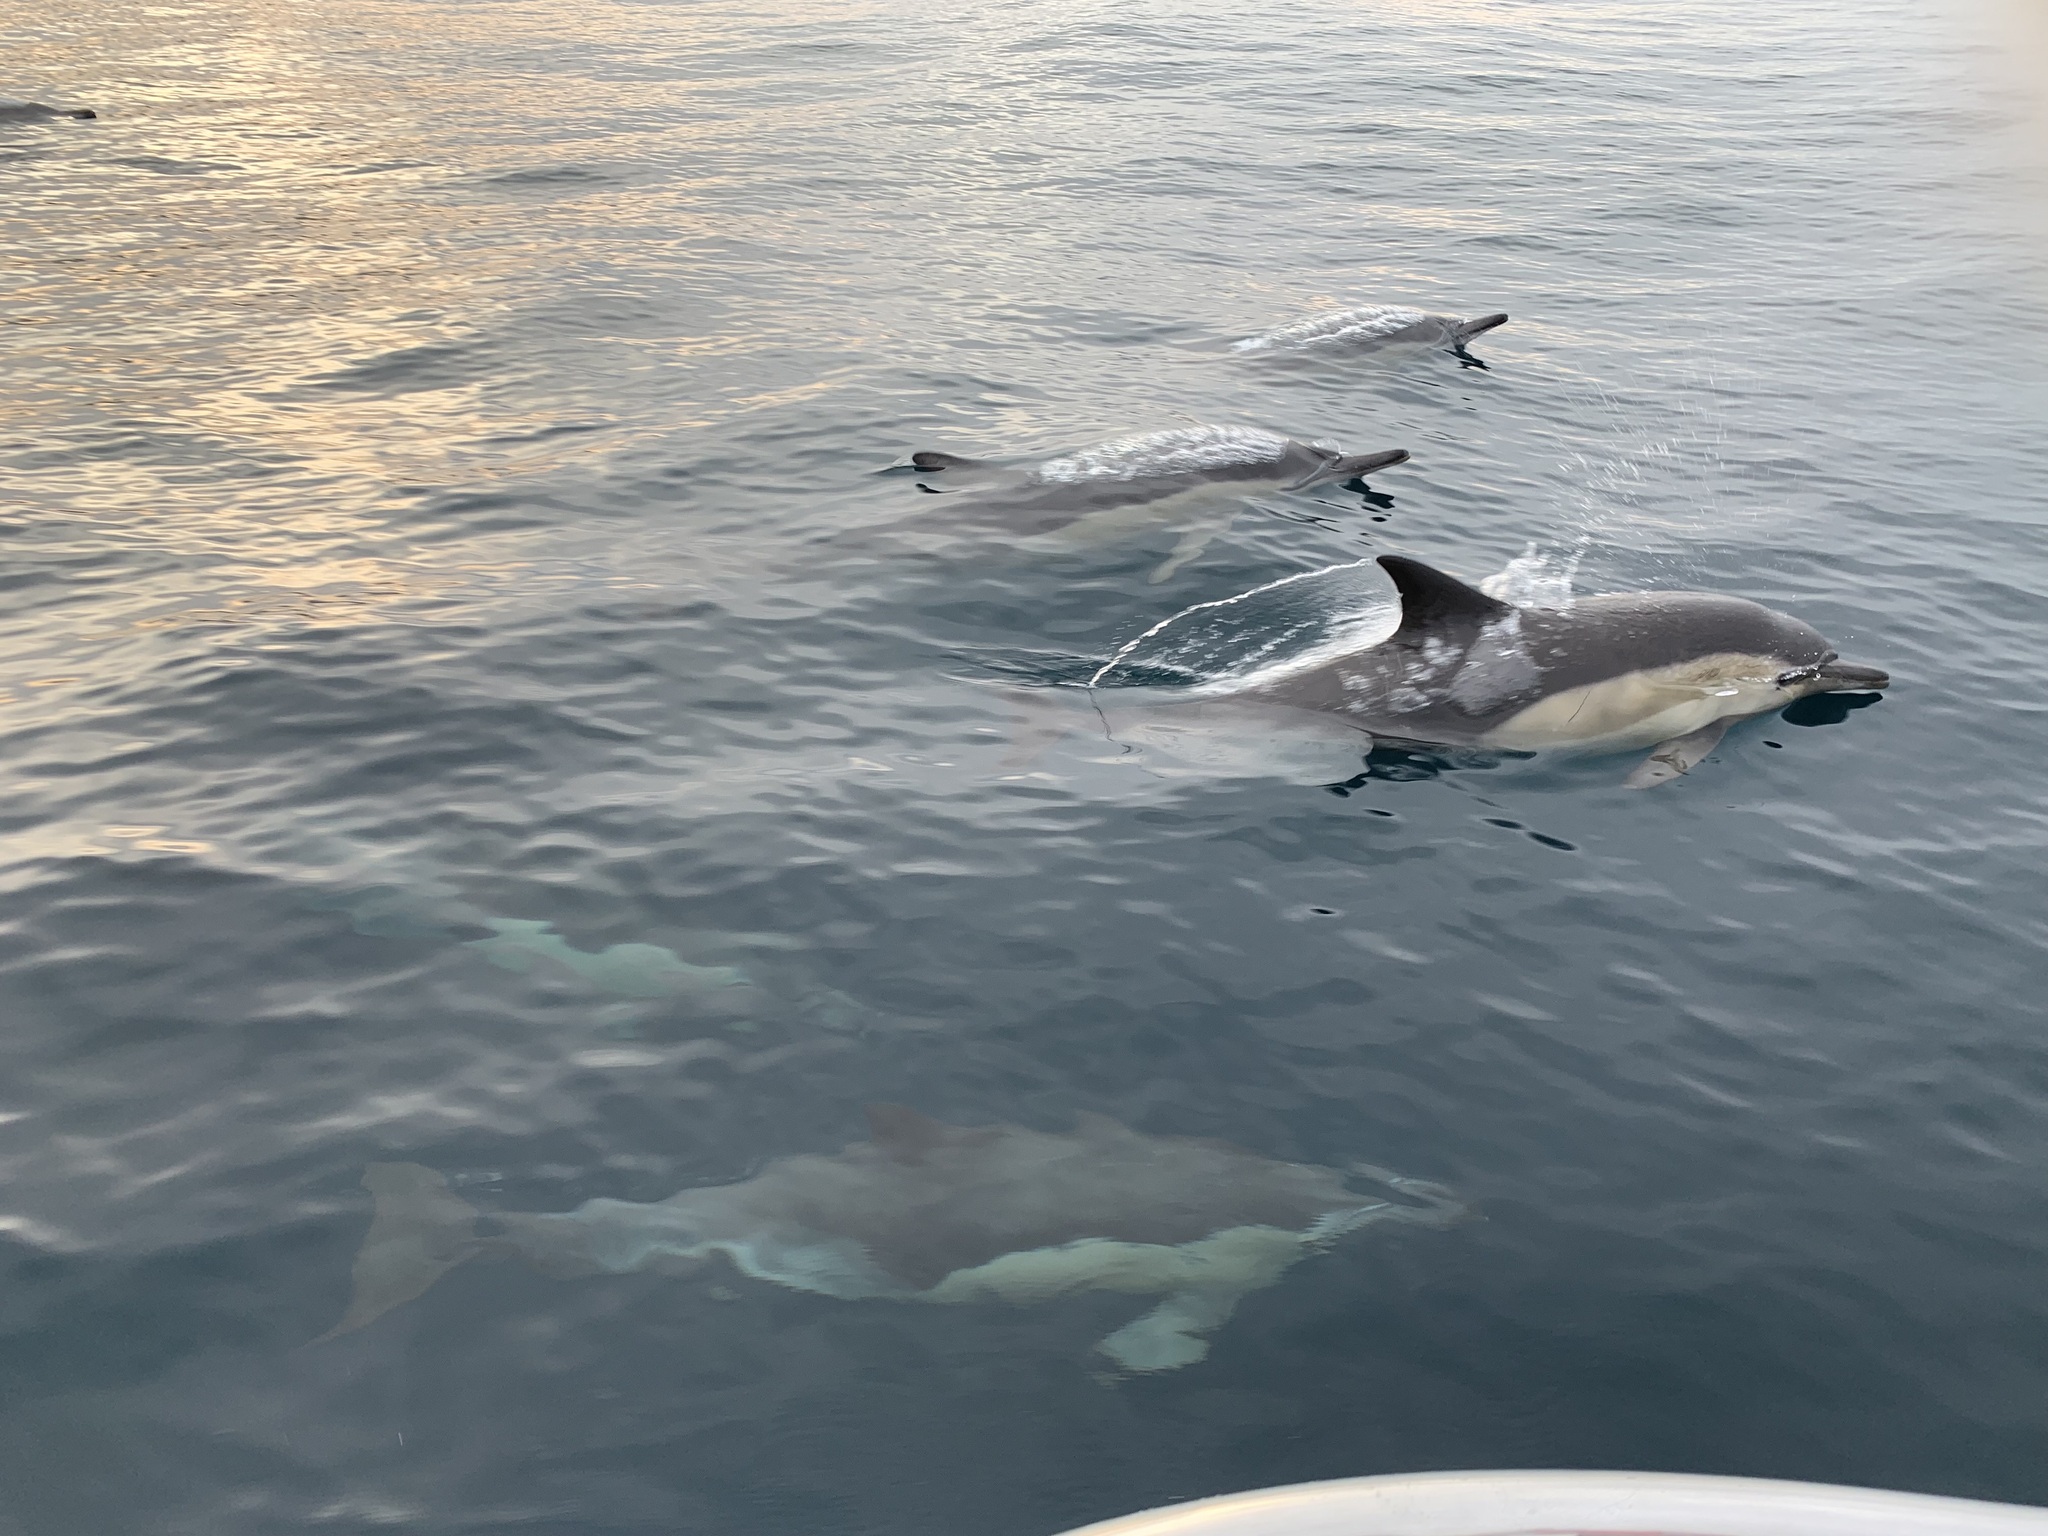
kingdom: Animalia
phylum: Chordata
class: Mammalia
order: Cetacea
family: Delphinidae
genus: Delphinus
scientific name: Delphinus delphis
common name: Common dolphin
